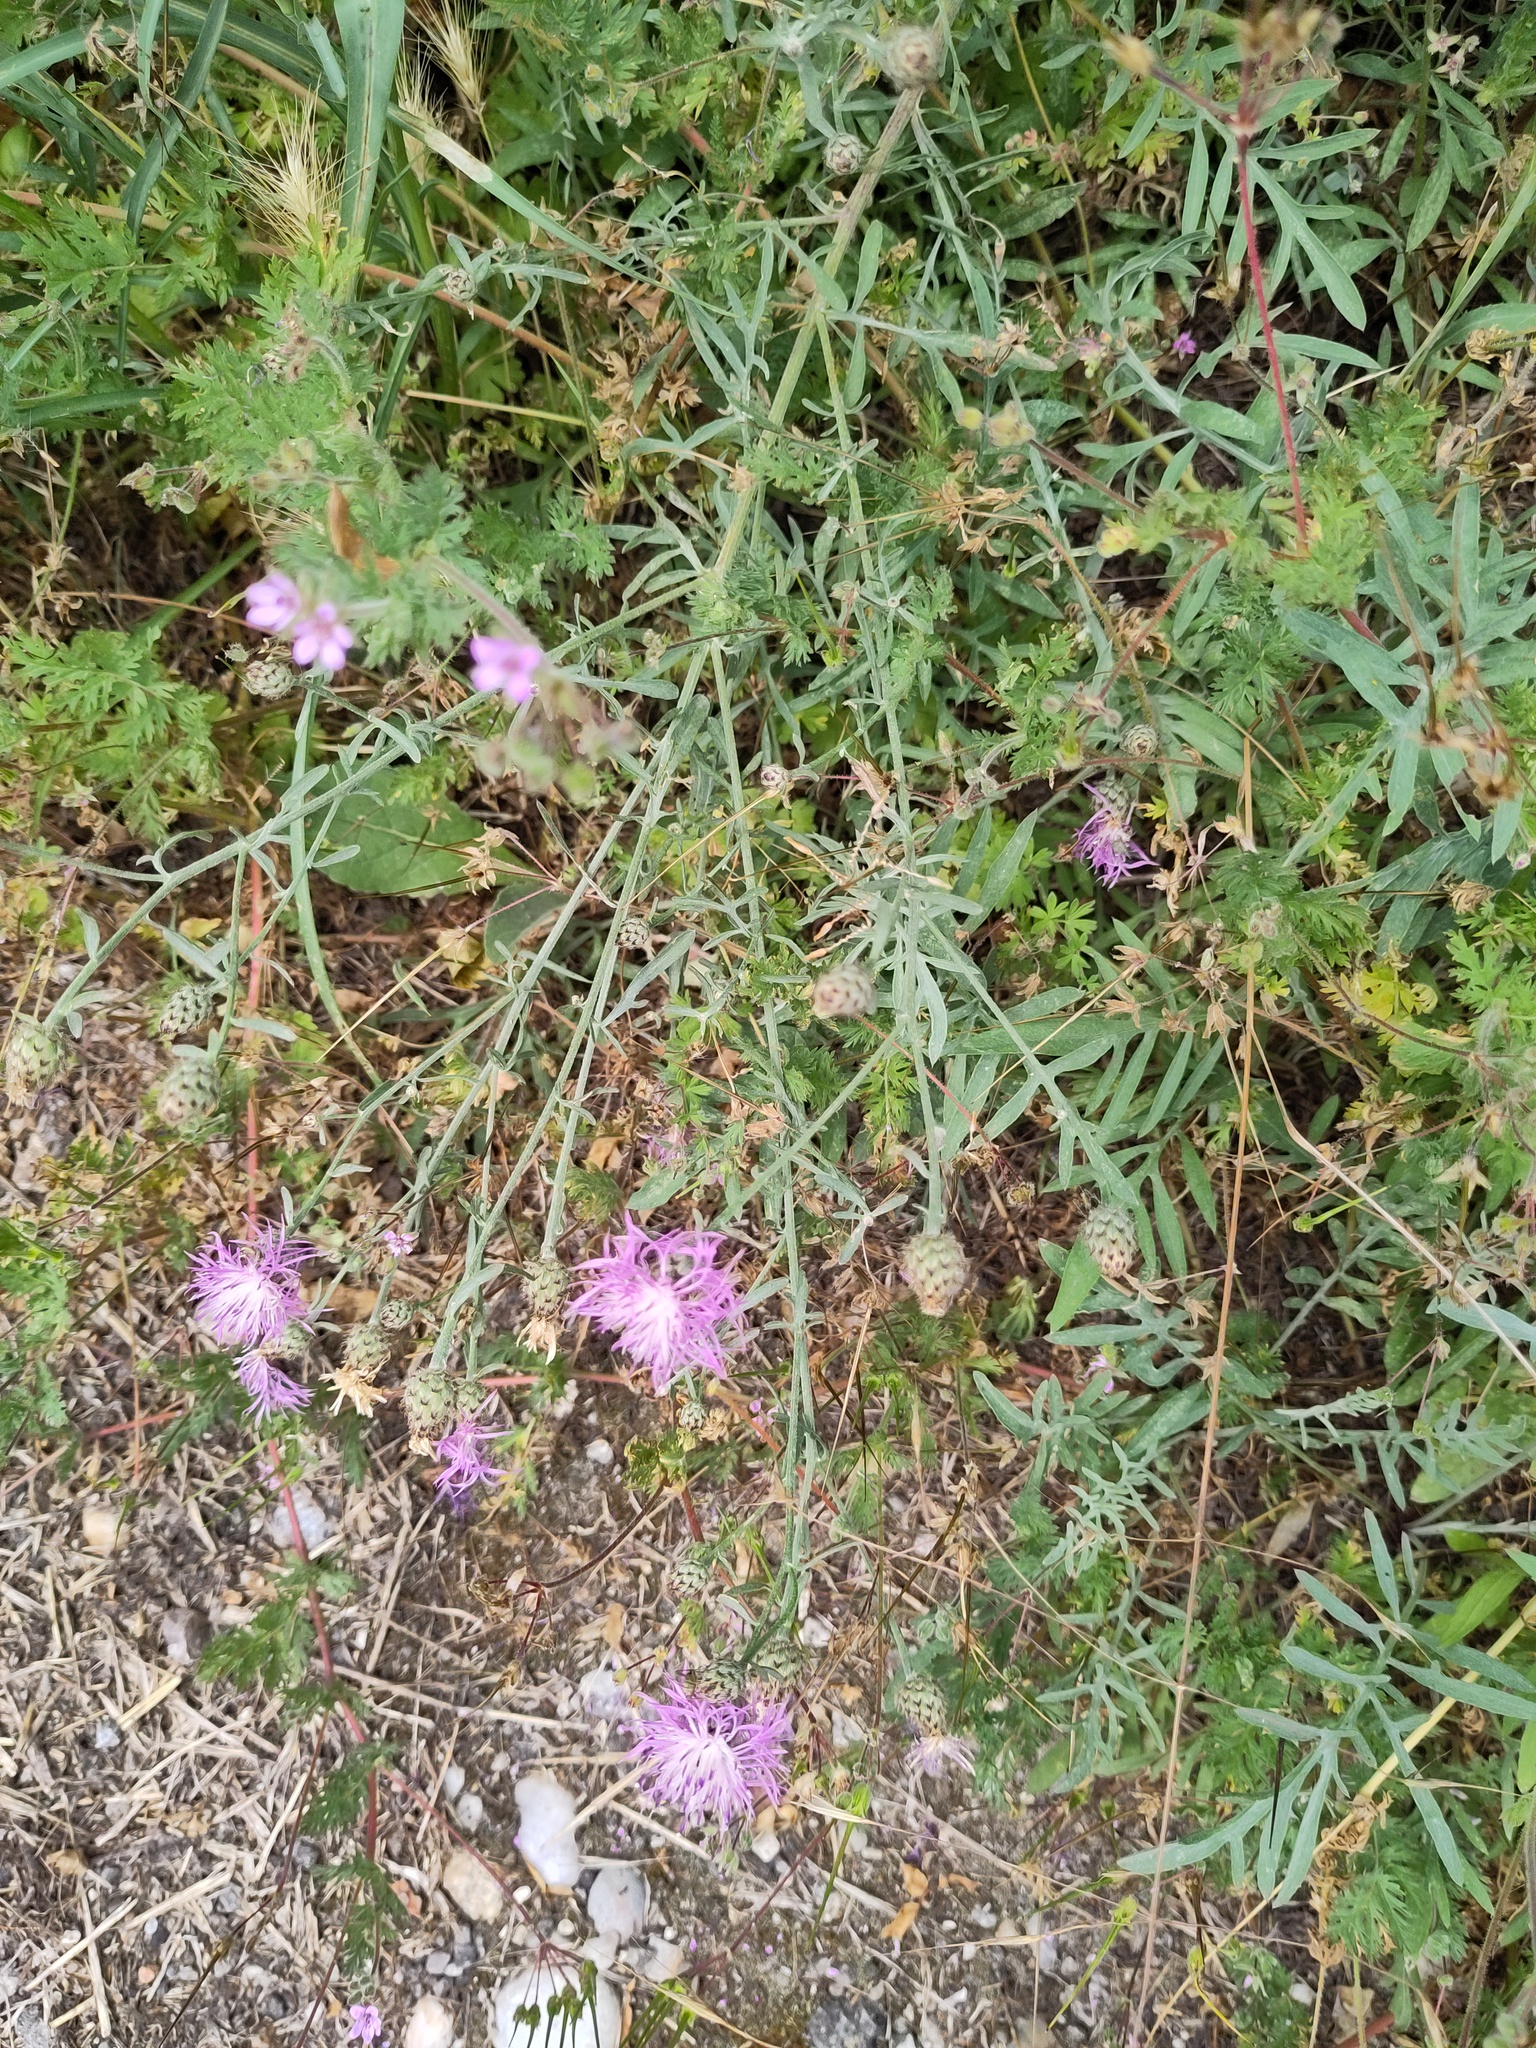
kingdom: Plantae
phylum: Tracheophyta
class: Magnoliopsida
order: Asterales
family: Asteraceae
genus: Centaurea
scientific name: Centaurea stoebe
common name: Spotted knapweed
